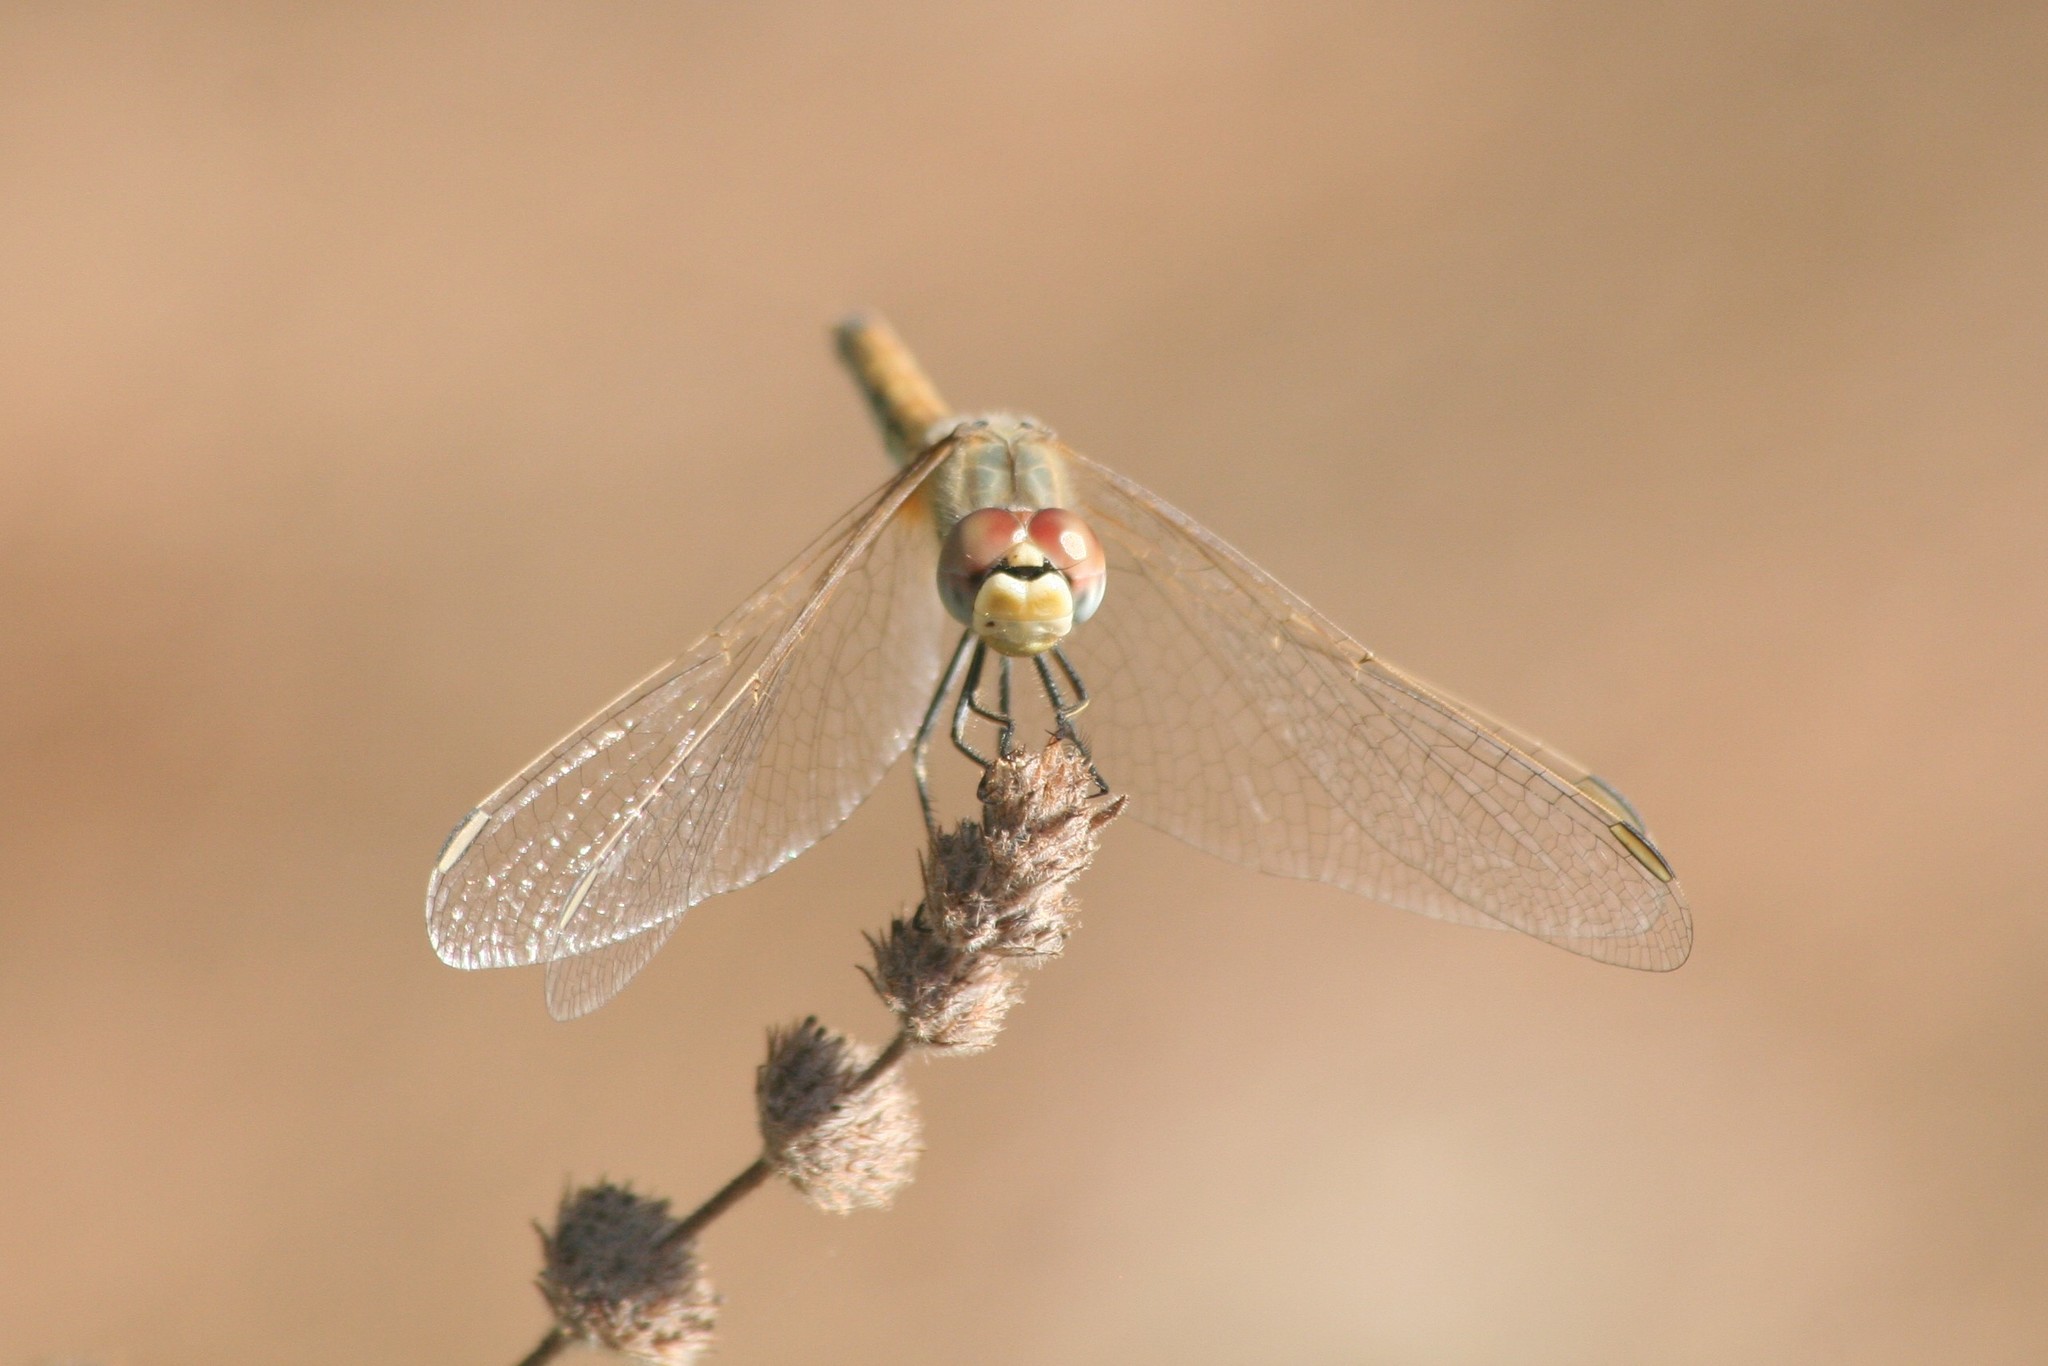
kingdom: Animalia
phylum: Arthropoda
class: Insecta
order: Odonata
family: Libellulidae
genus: Sympetrum
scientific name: Sympetrum fonscolombii
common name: Red-veined darter
